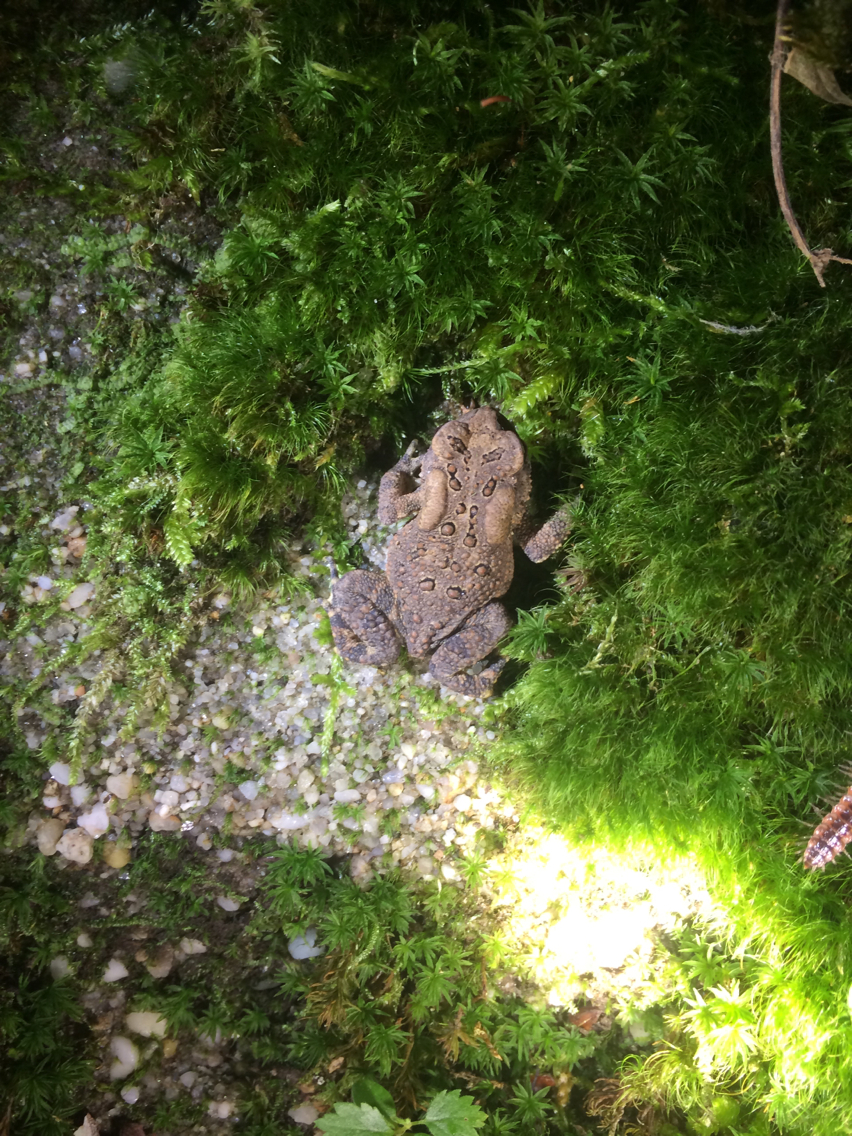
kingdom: Animalia
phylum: Chordata
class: Amphibia
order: Anura
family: Bufonidae
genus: Anaxyrus
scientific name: Anaxyrus americanus
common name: American toad
